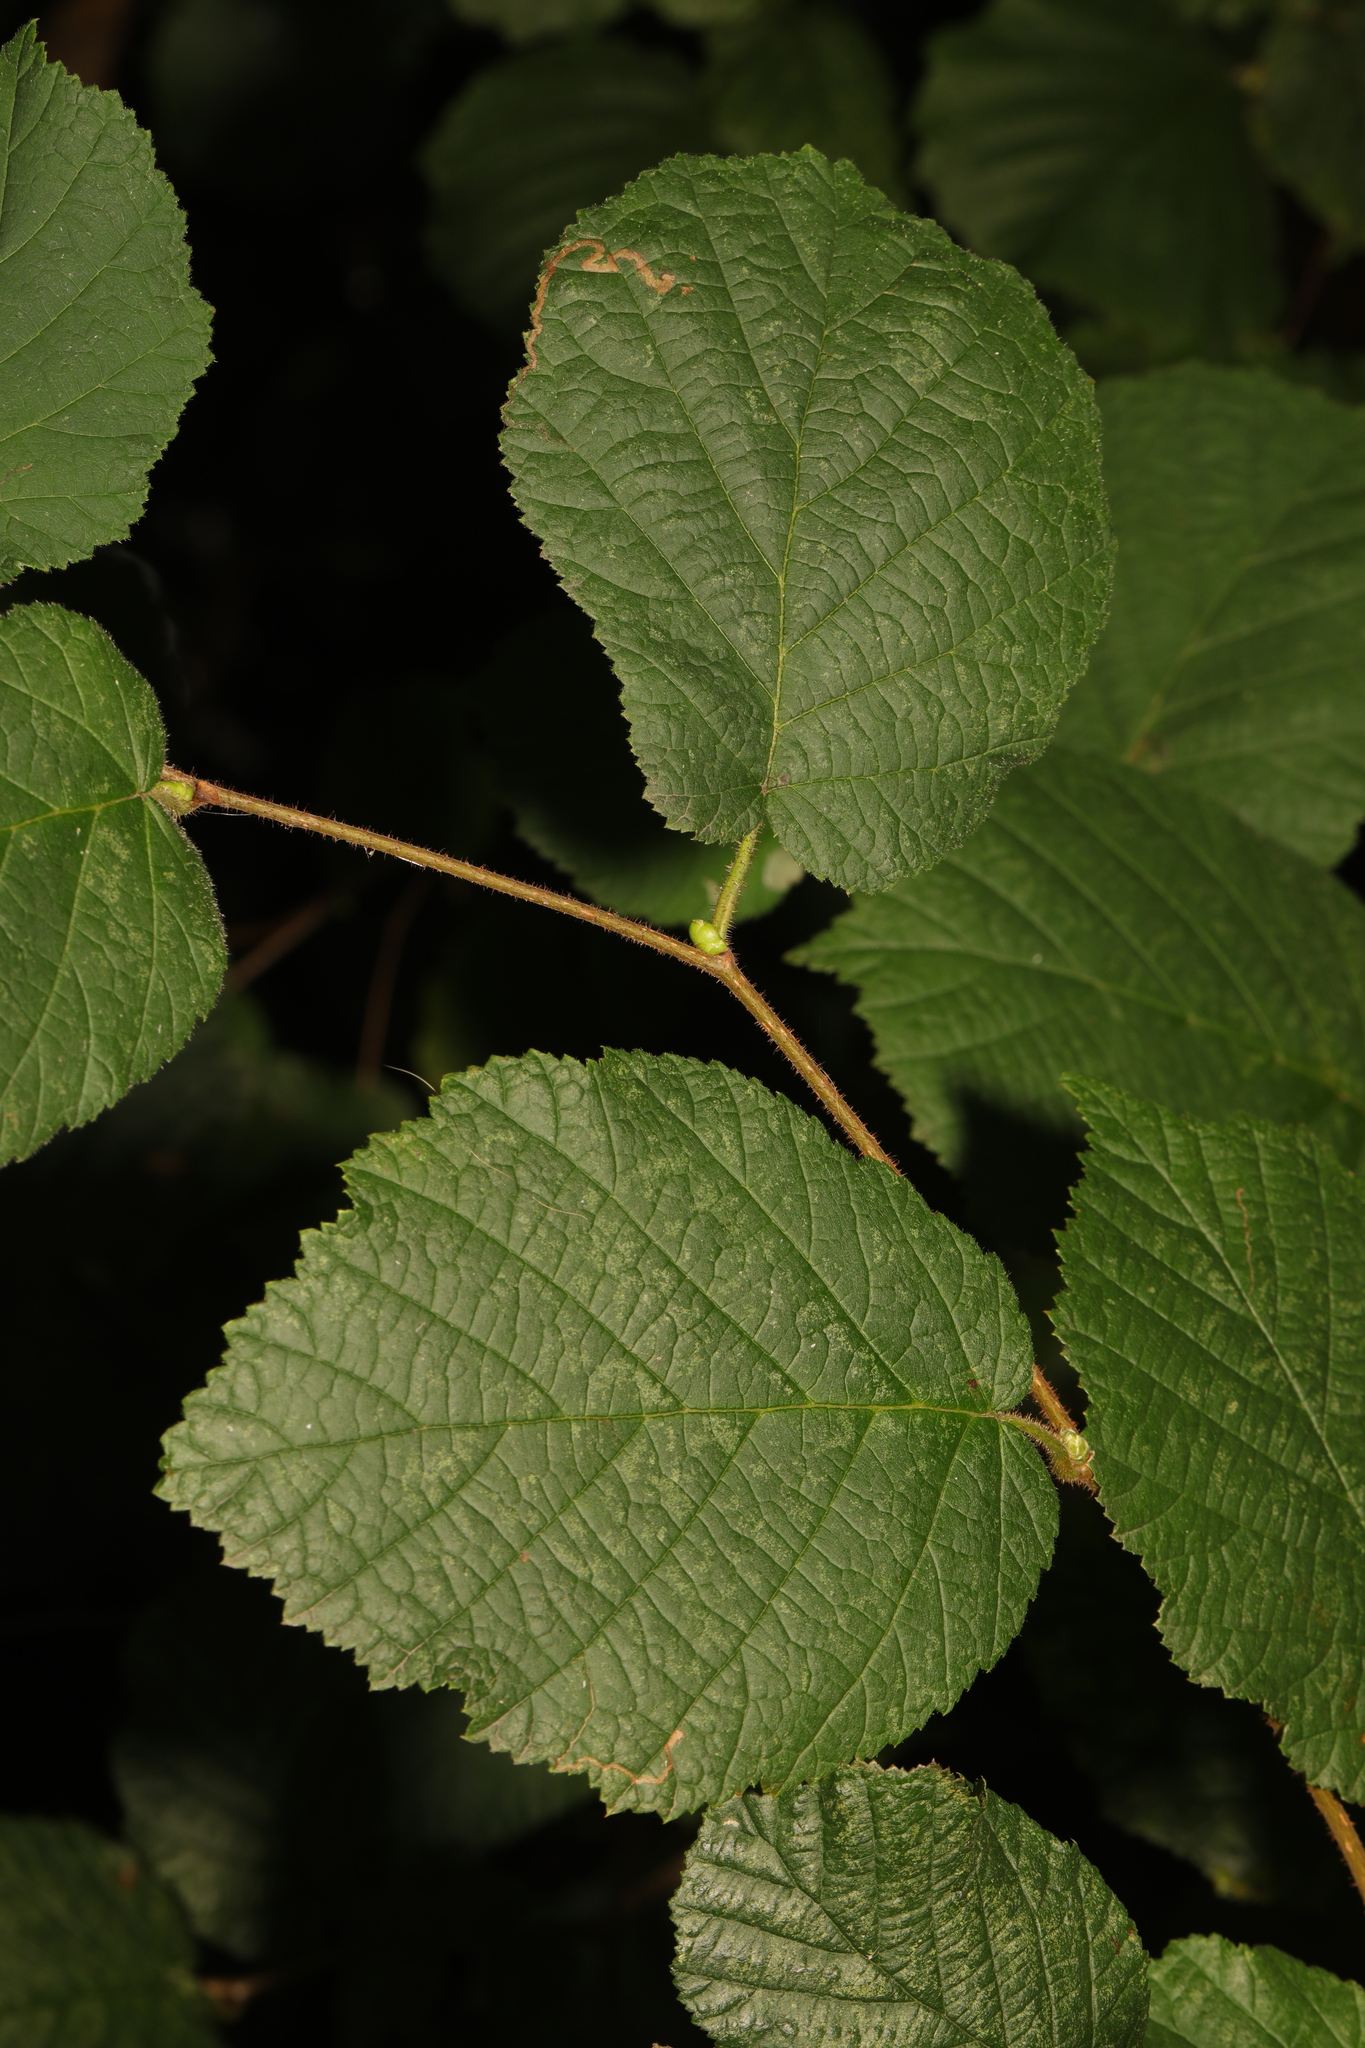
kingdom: Plantae
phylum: Tracheophyta
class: Magnoliopsida
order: Fagales
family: Betulaceae
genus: Corylus
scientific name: Corylus avellana
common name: European hazel
